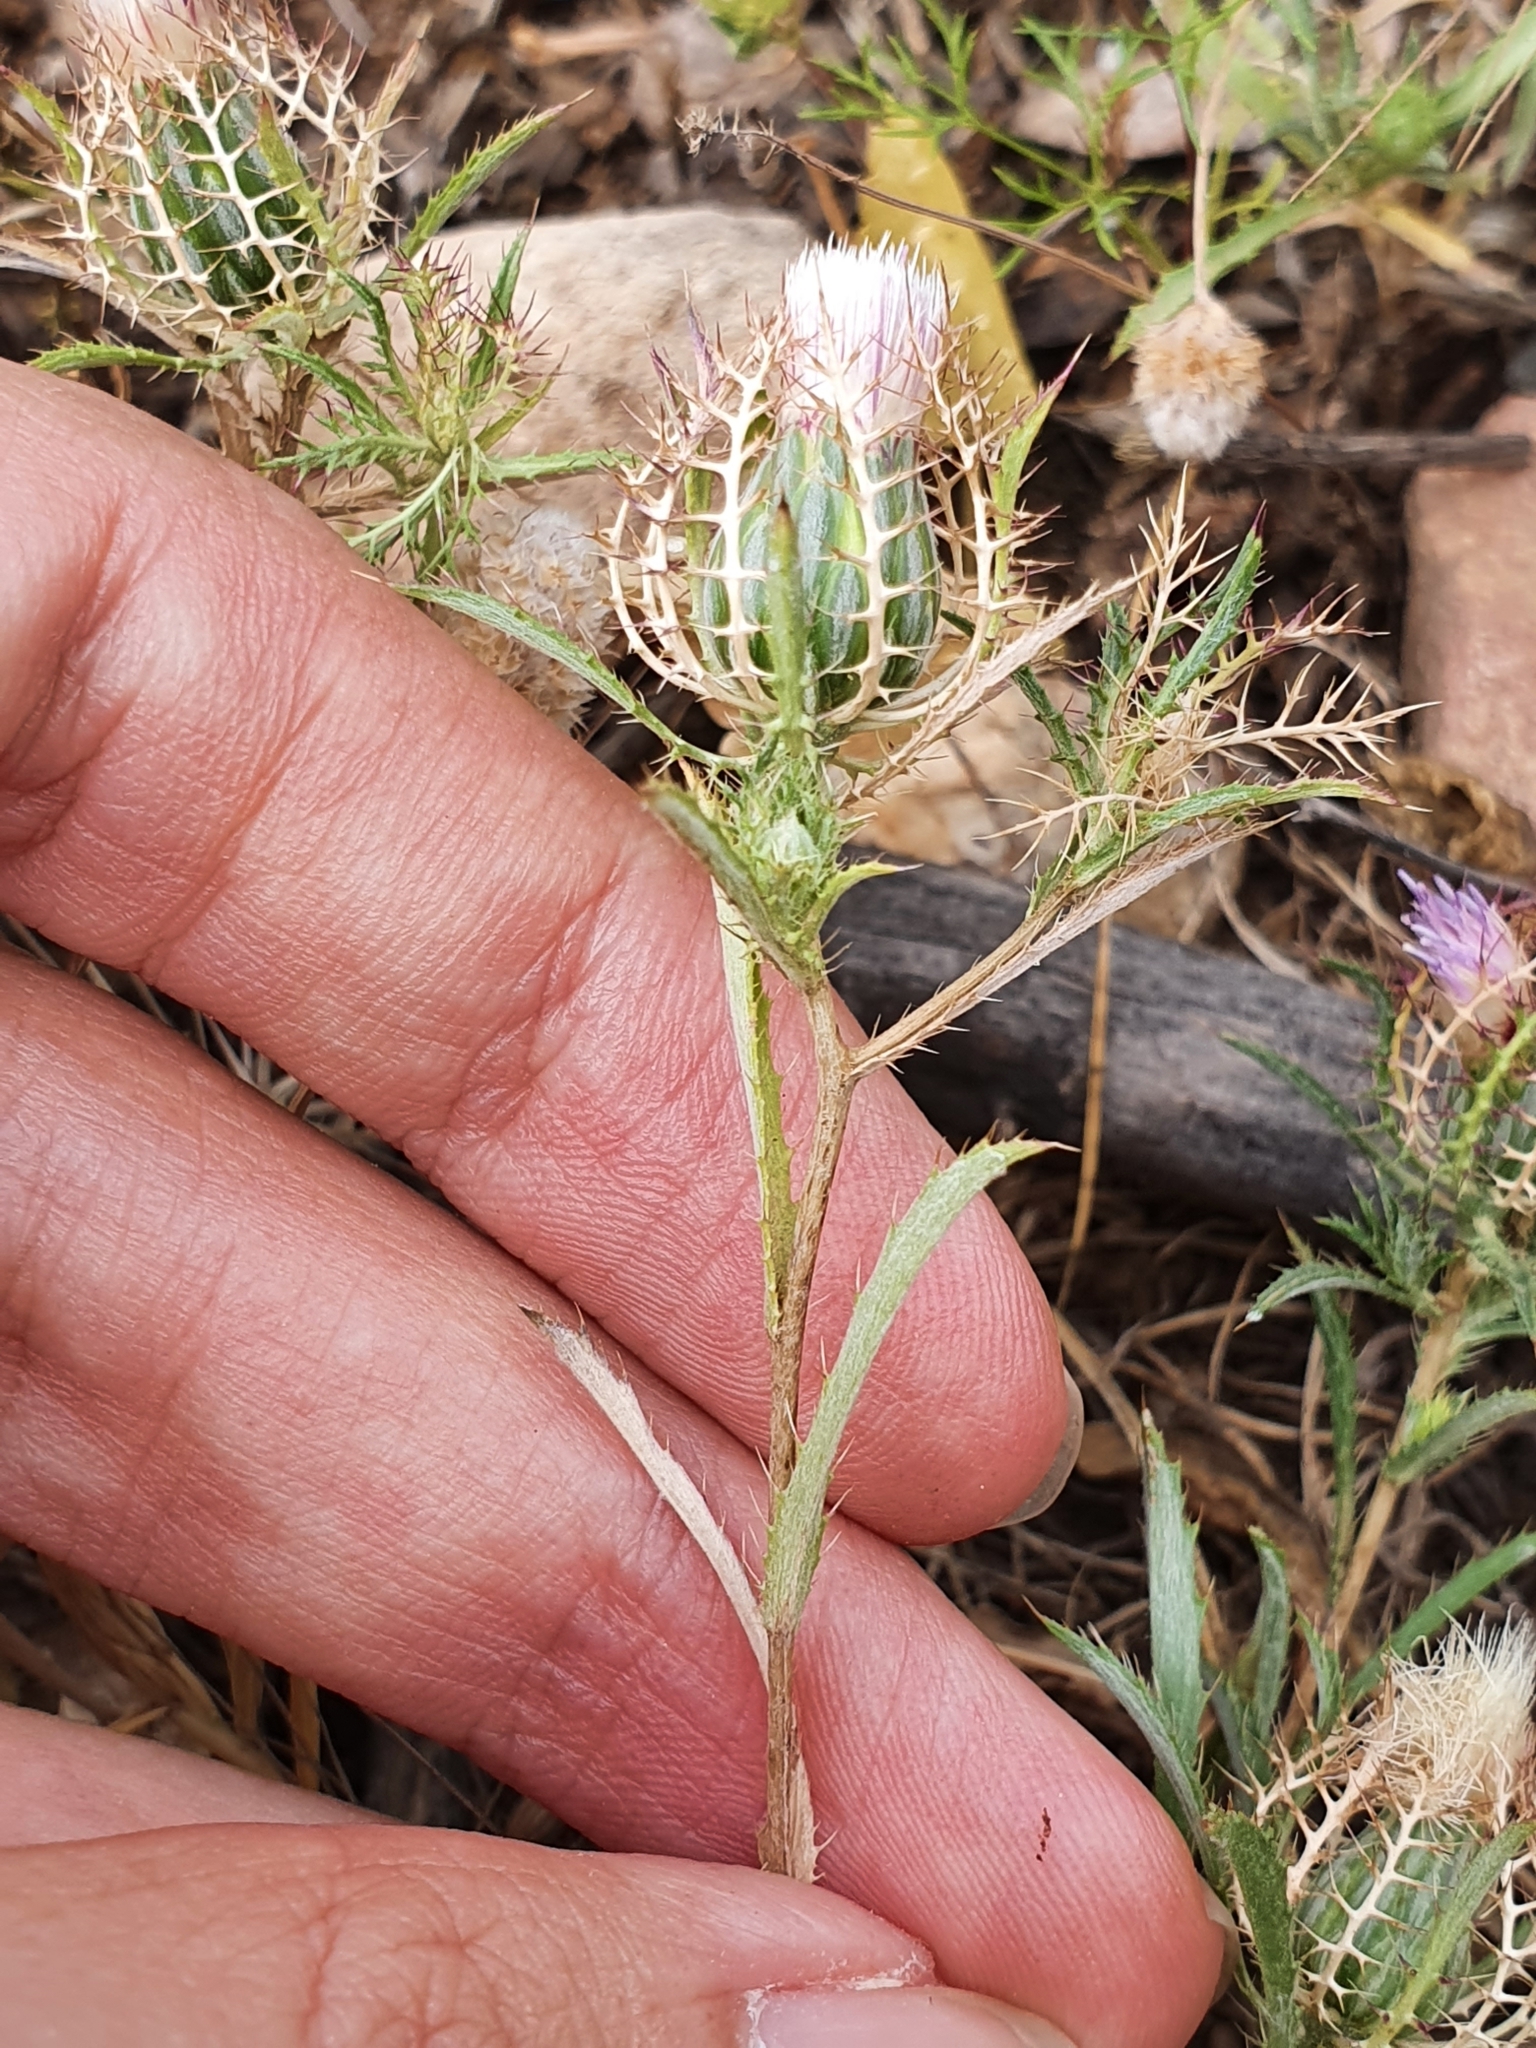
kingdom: Plantae
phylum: Tracheophyta
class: Magnoliopsida
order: Asterales
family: Asteraceae
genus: Atractylis
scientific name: Atractylis cancellata
